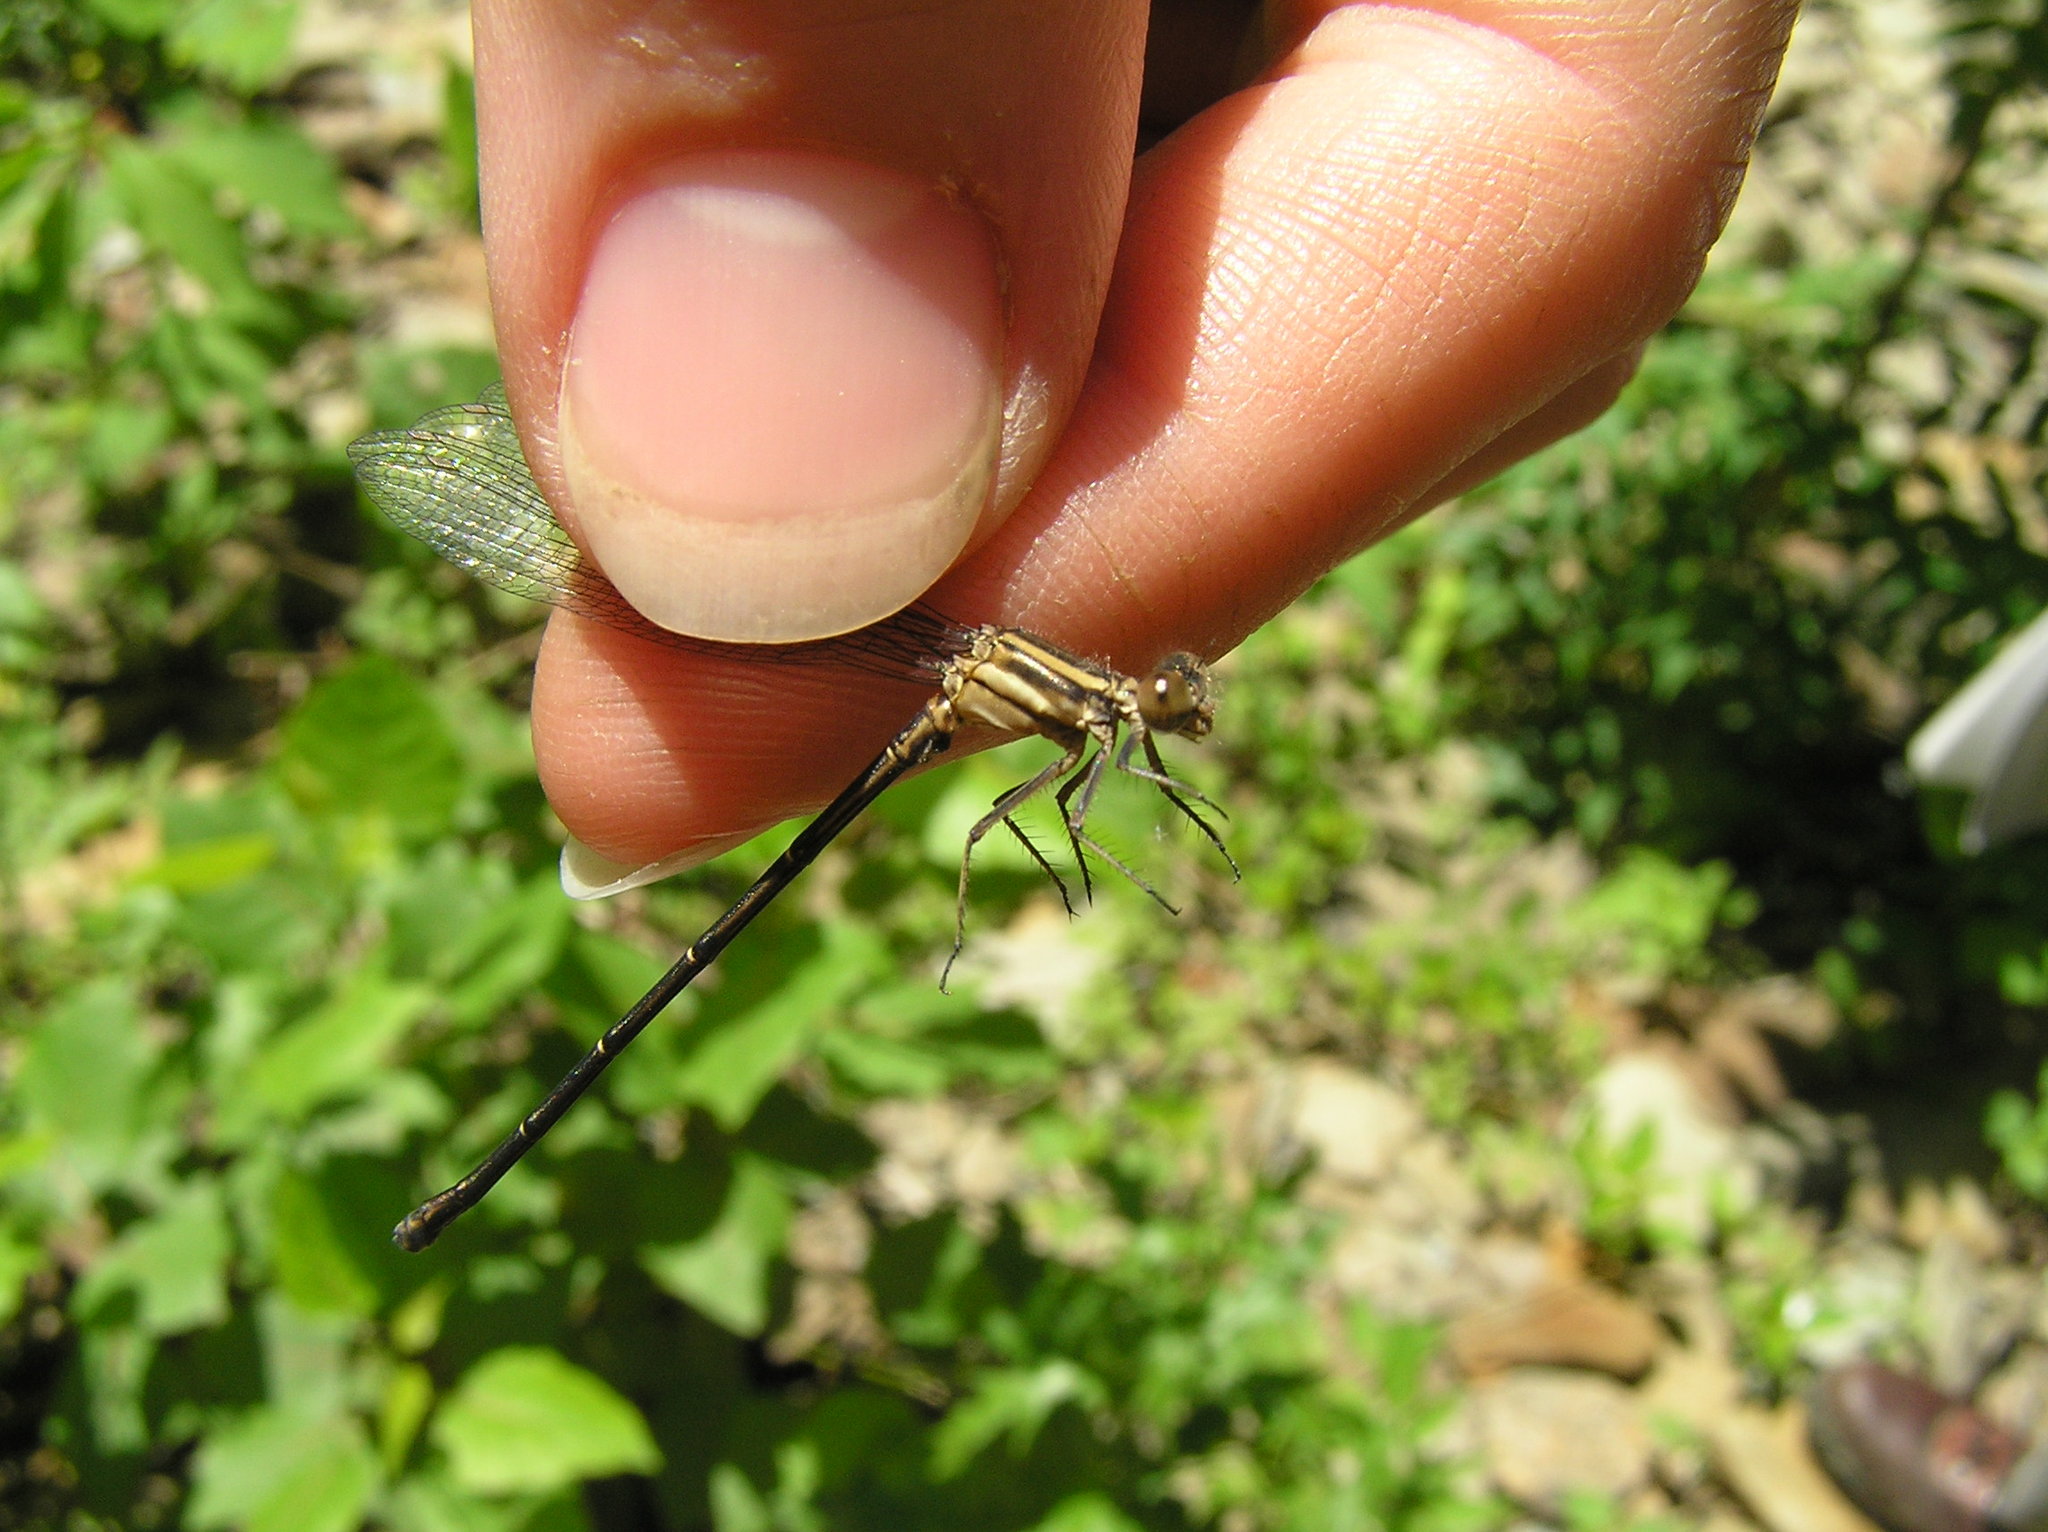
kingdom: Animalia
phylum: Arthropoda
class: Insecta
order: Odonata
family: Coenagrionidae
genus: Argia
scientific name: Argia translata
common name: Dusky dancer
